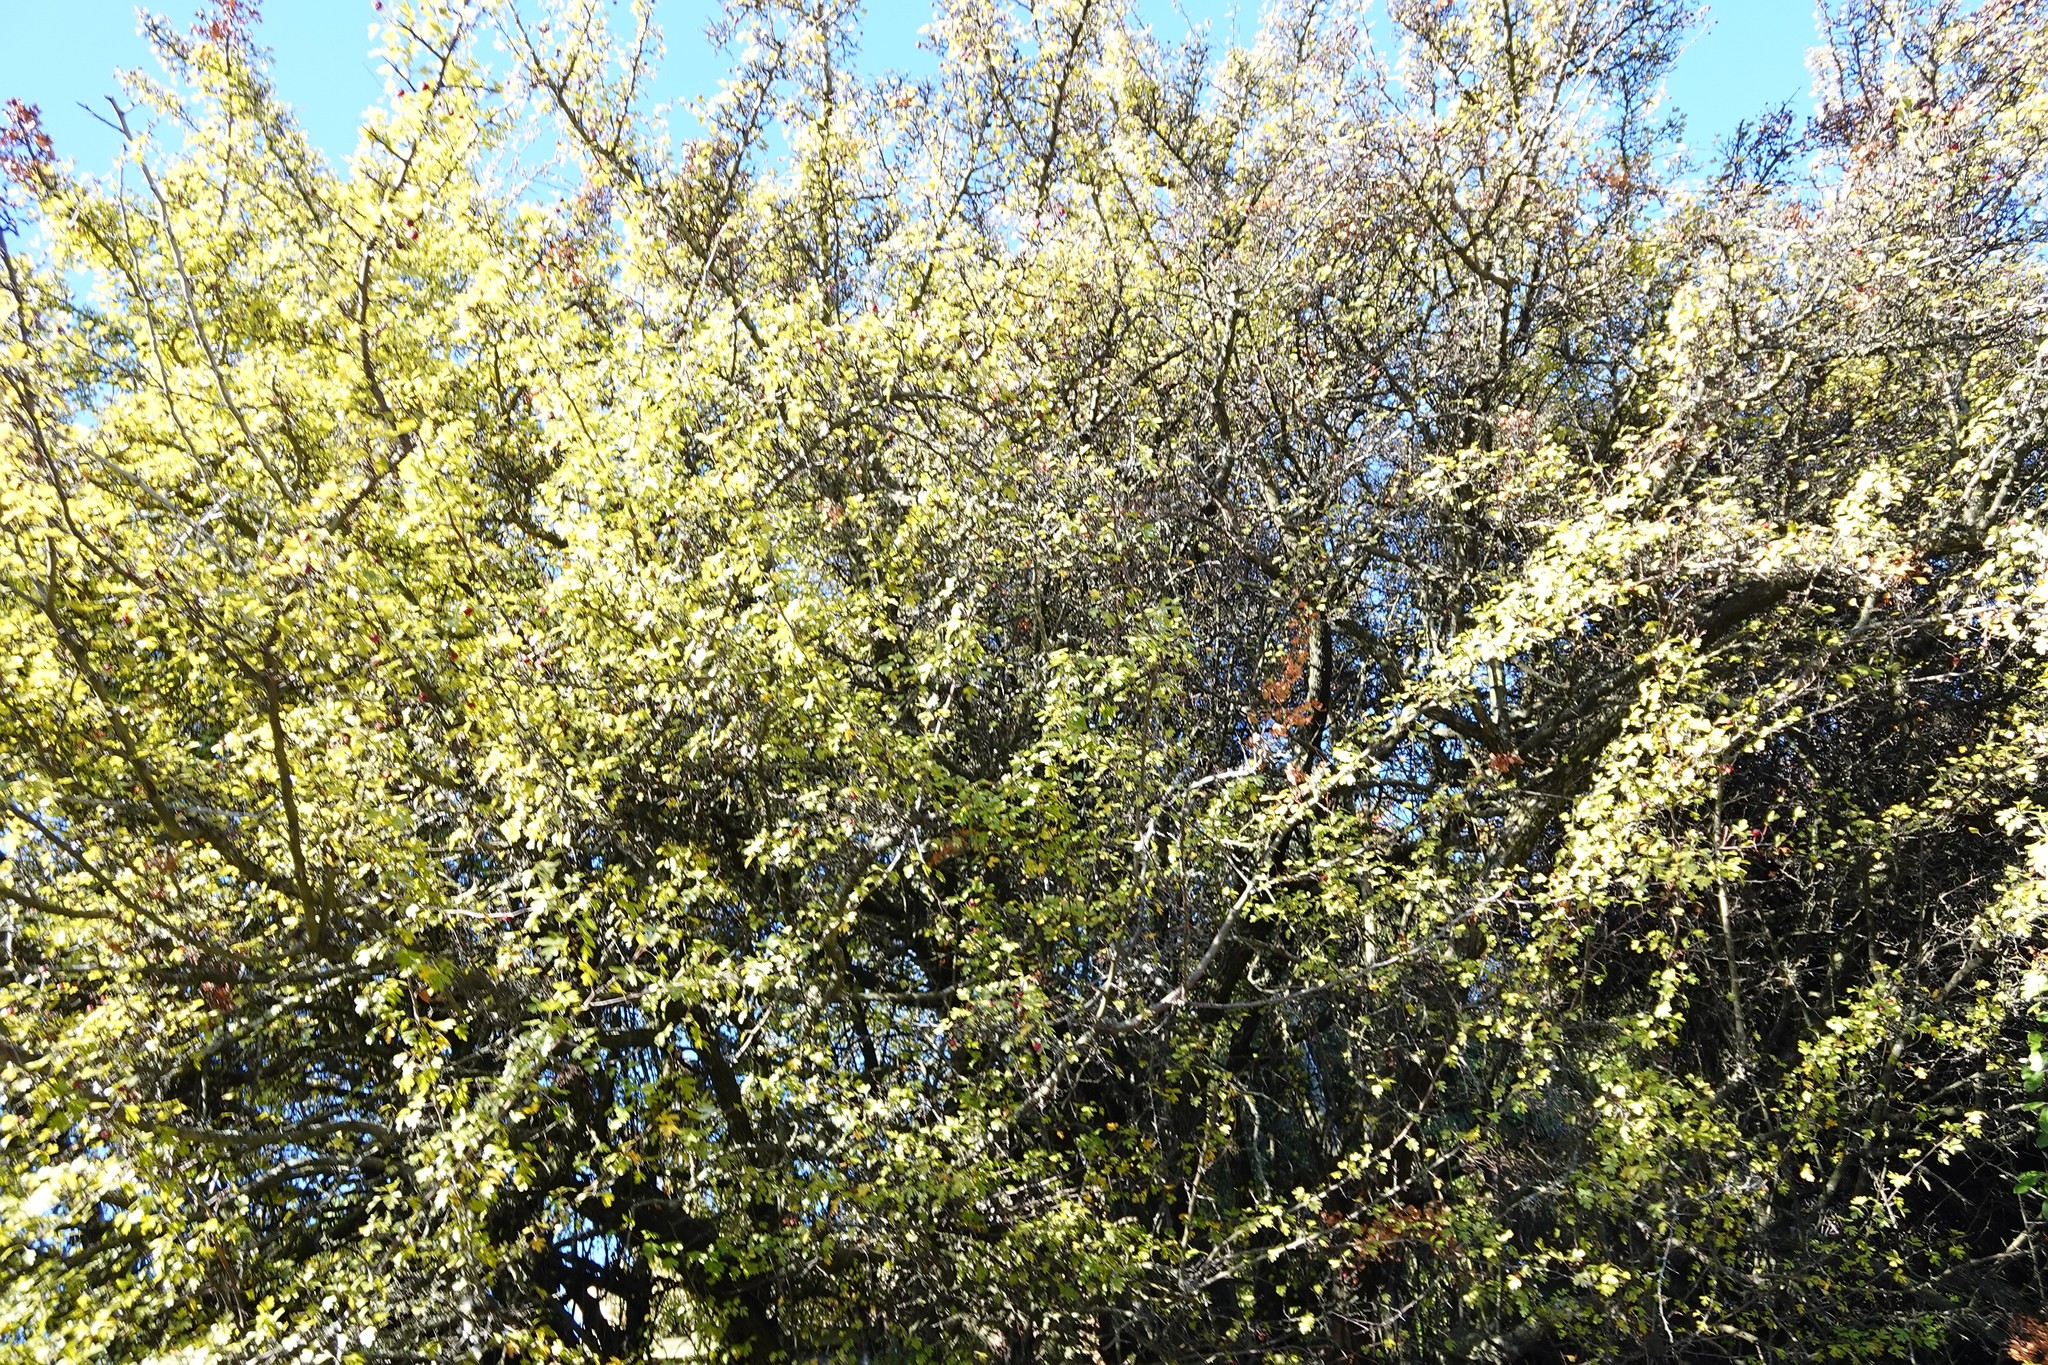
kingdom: Plantae
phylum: Tracheophyta
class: Magnoliopsida
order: Rosales
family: Rosaceae
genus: Crataegus
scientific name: Crataegus monogyna
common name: Hawthorn
